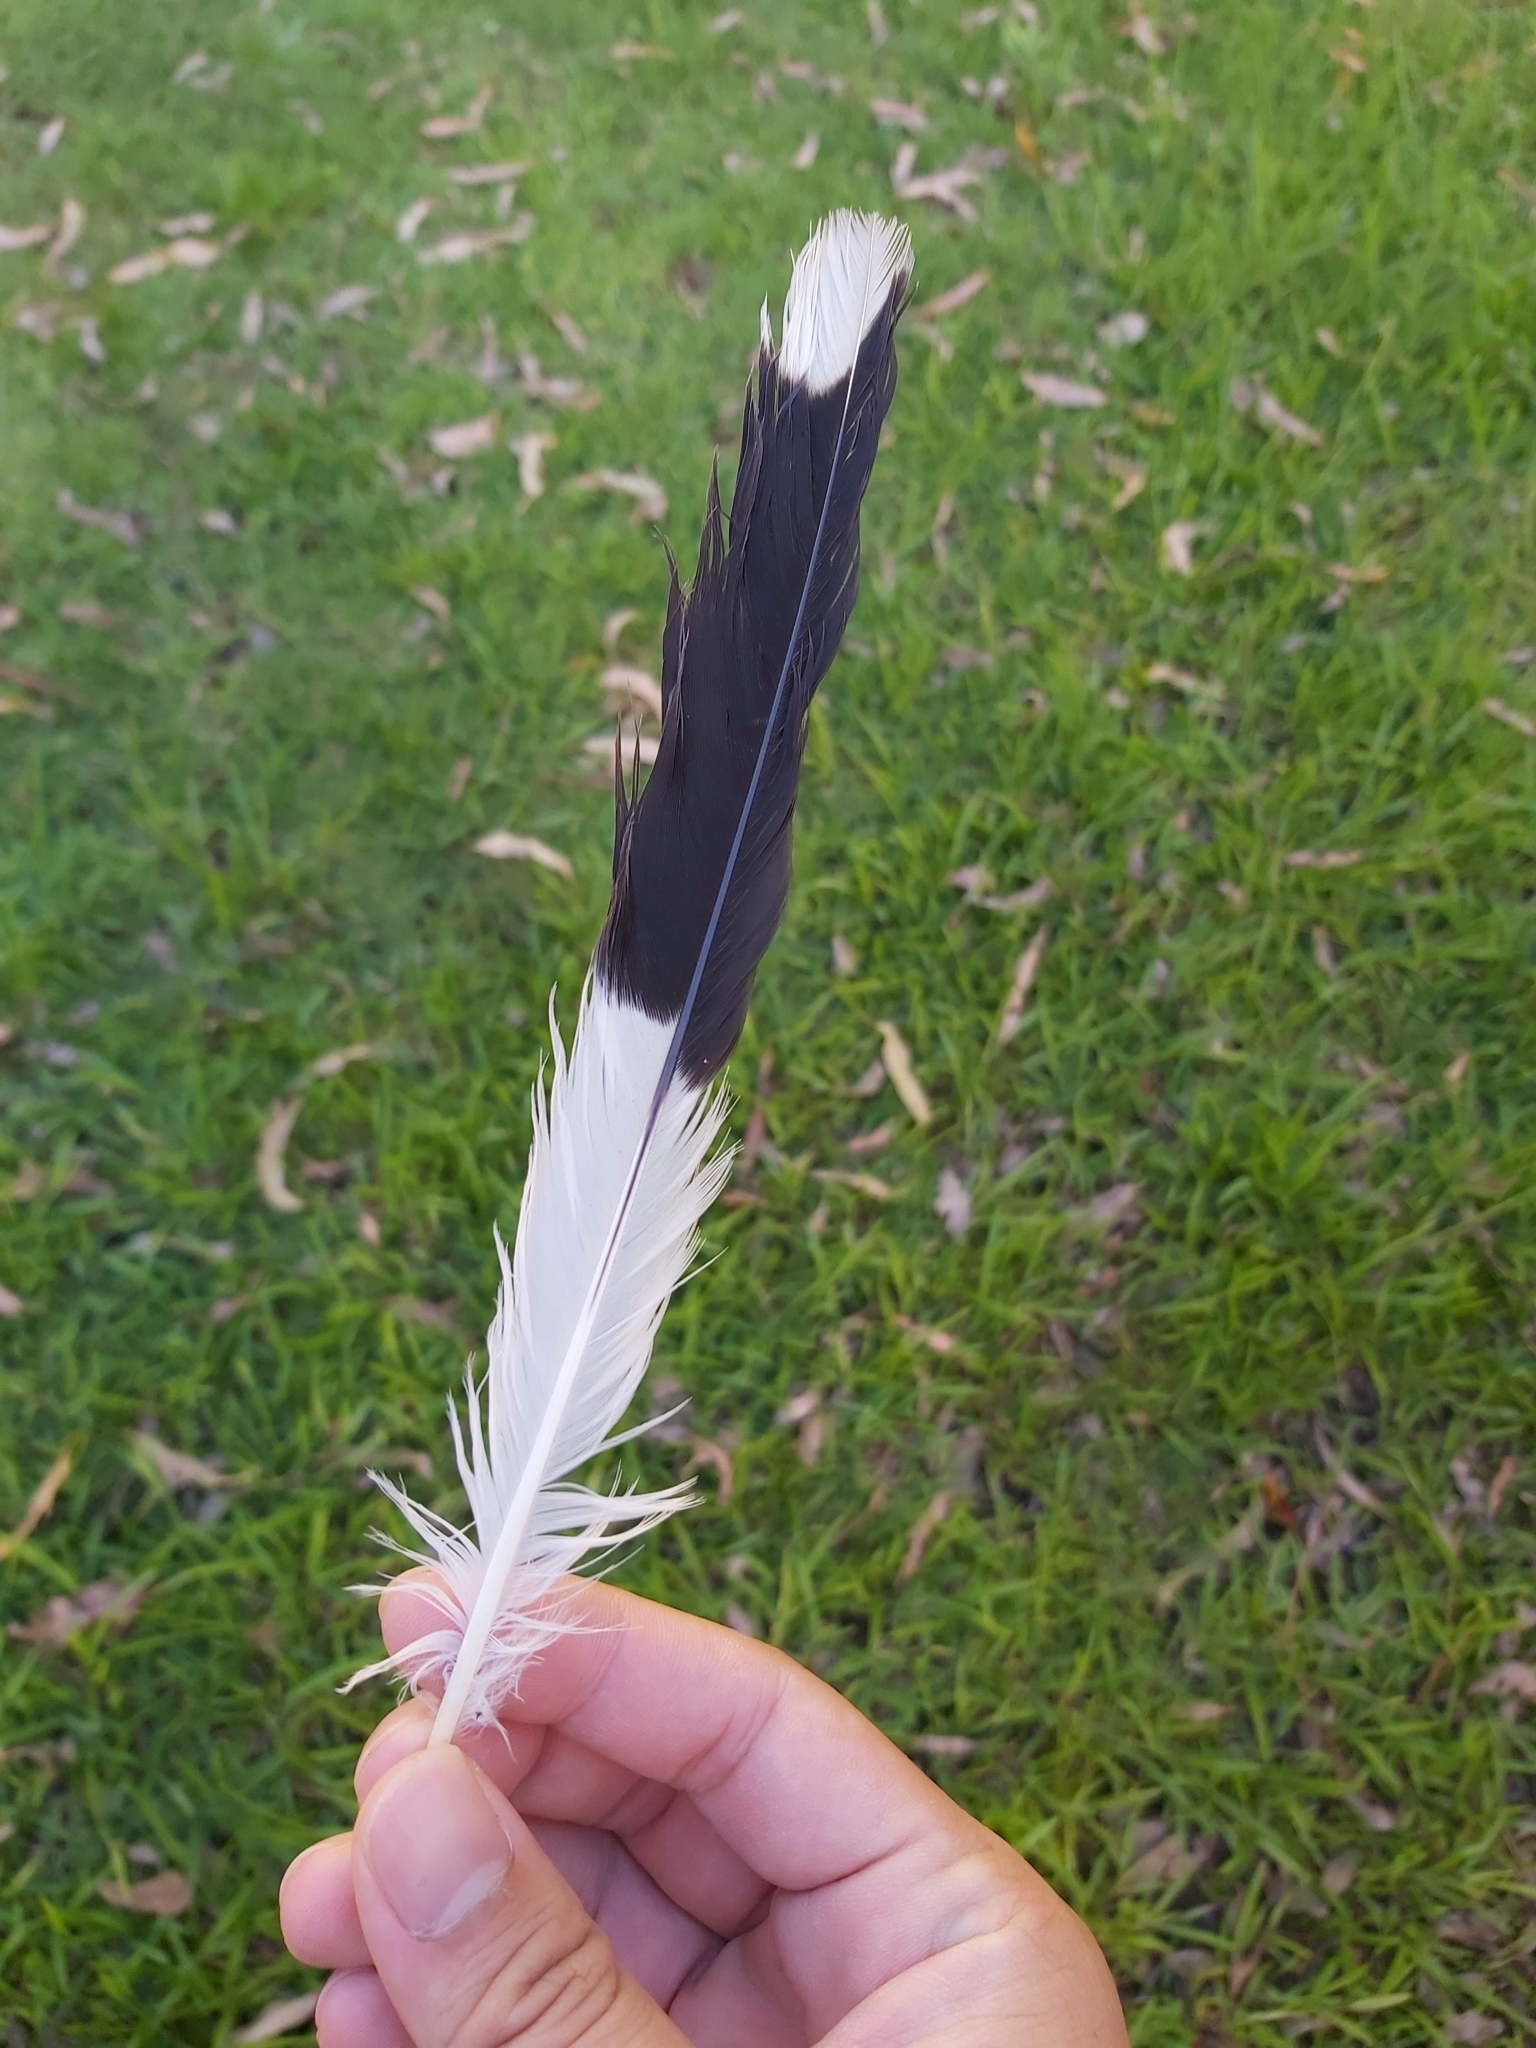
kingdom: Animalia
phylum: Chordata
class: Aves
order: Passeriformes
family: Cracticidae
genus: Strepera
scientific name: Strepera graculina
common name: Pied currawong
